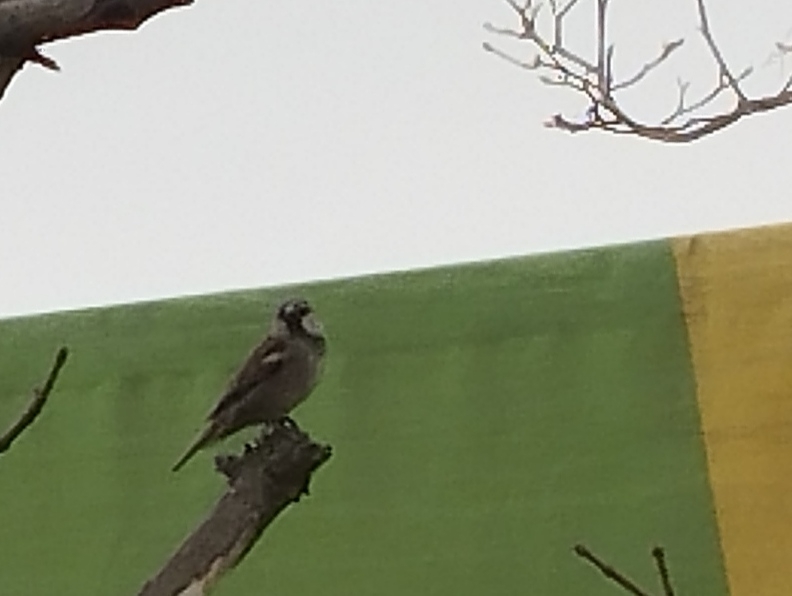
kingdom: Animalia
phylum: Chordata
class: Aves
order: Passeriformes
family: Passeridae
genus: Passer
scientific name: Passer domesticus
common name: House sparrow
